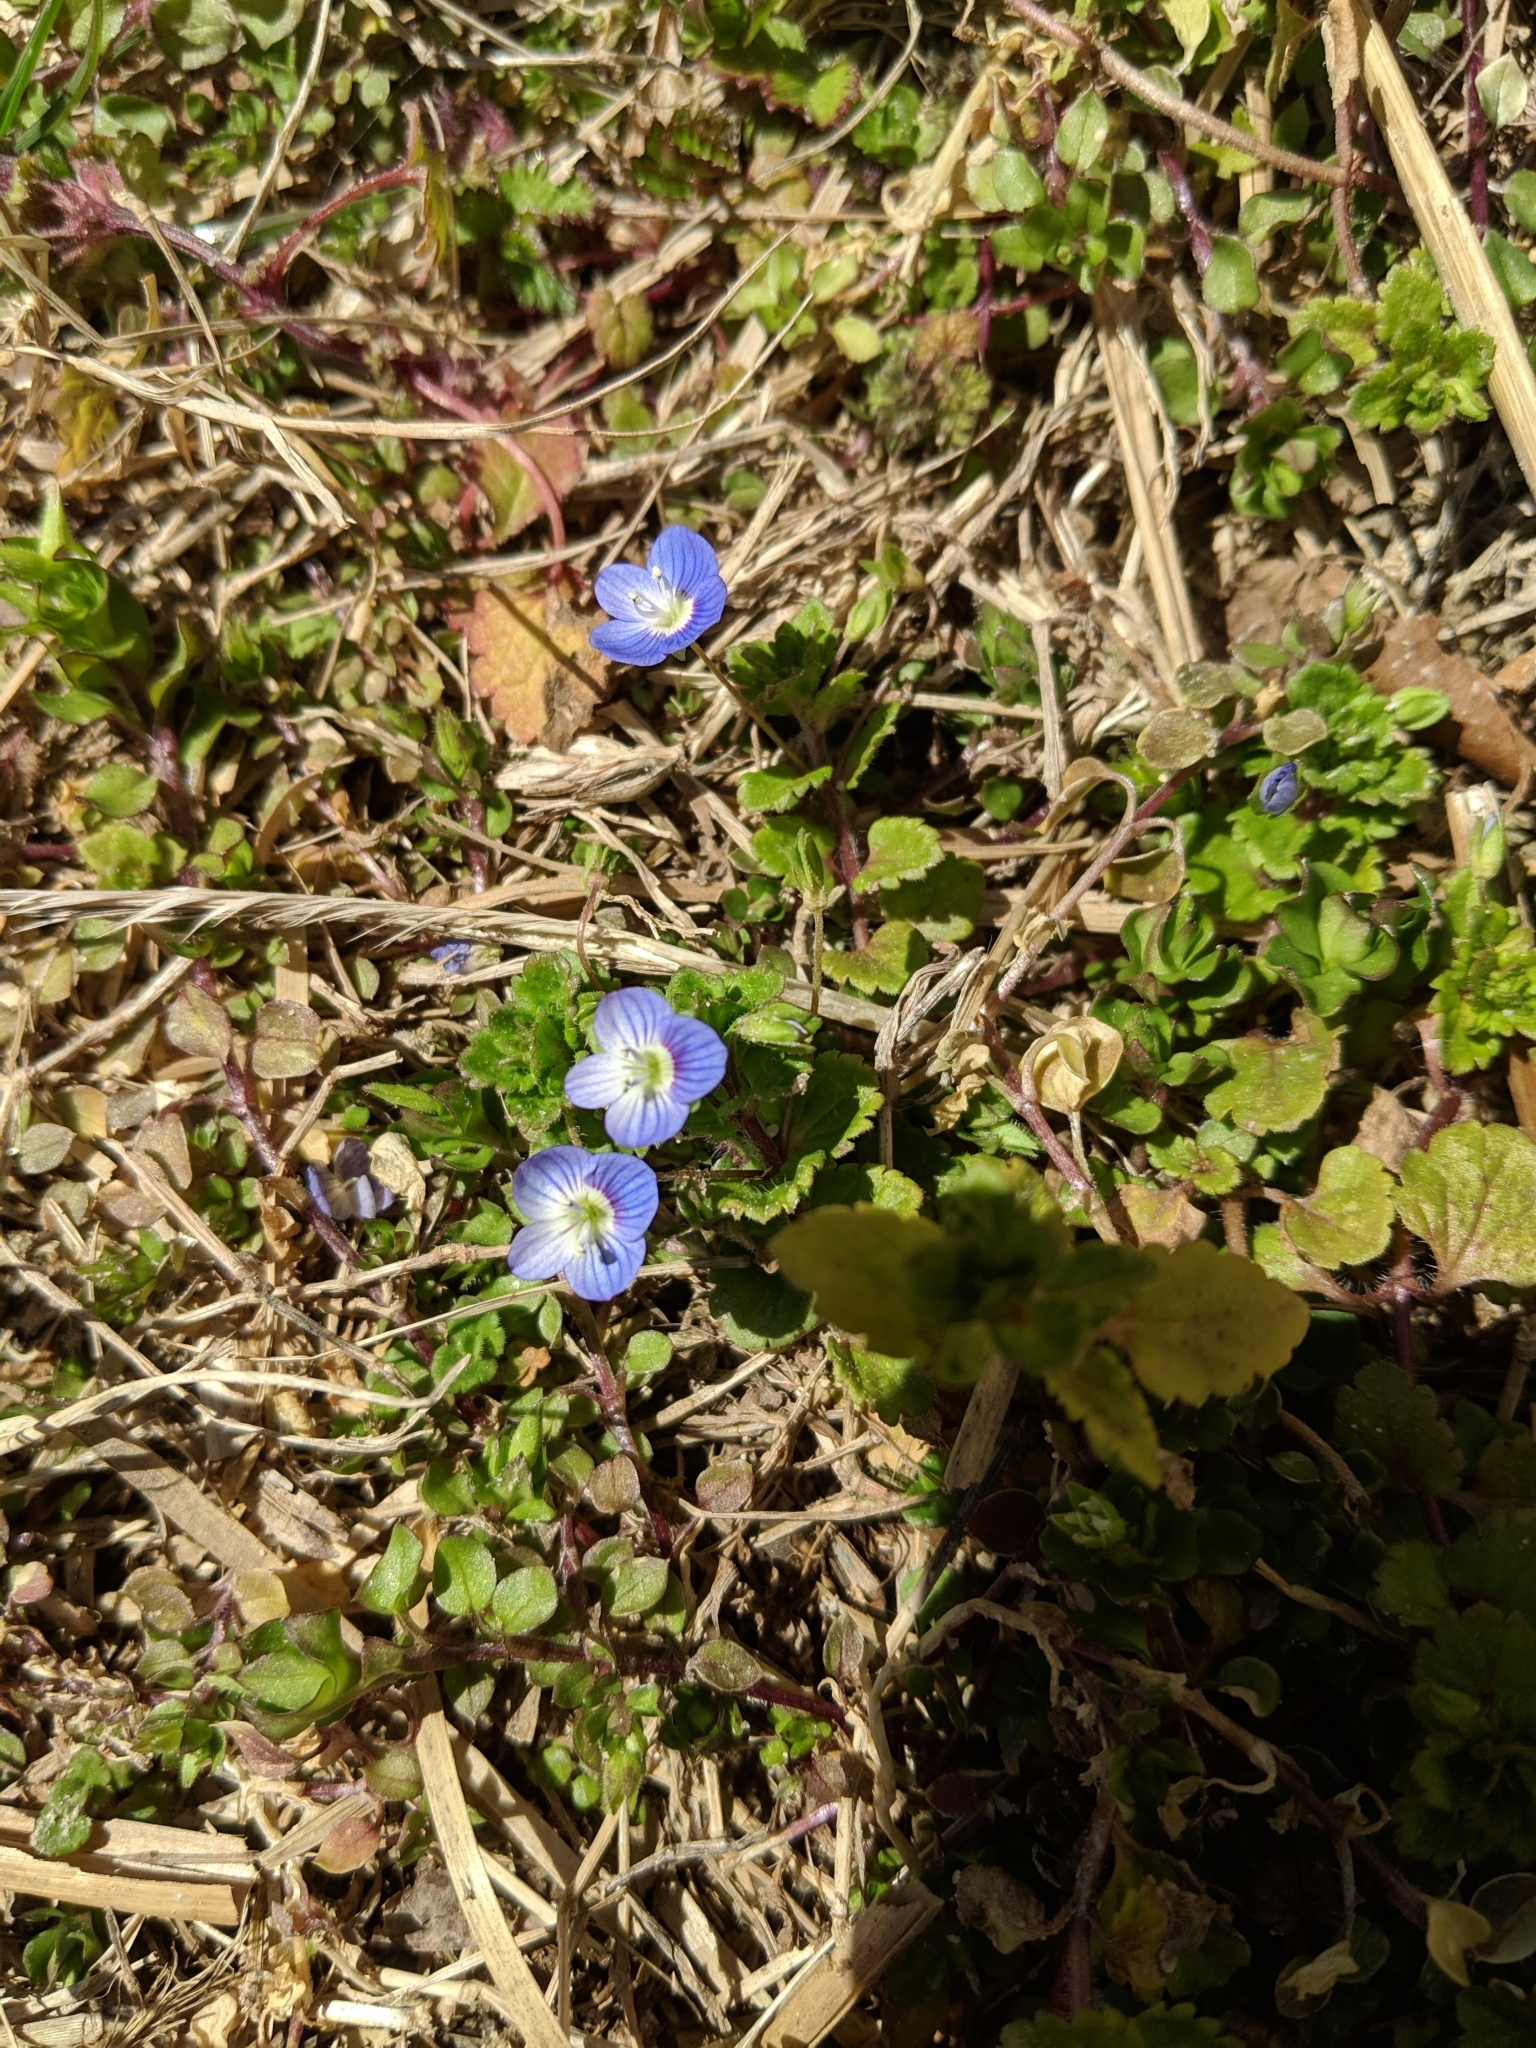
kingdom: Plantae
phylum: Tracheophyta
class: Magnoliopsida
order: Lamiales
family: Plantaginaceae
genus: Veronica
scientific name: Veronica persica
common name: Common field-speedwell
